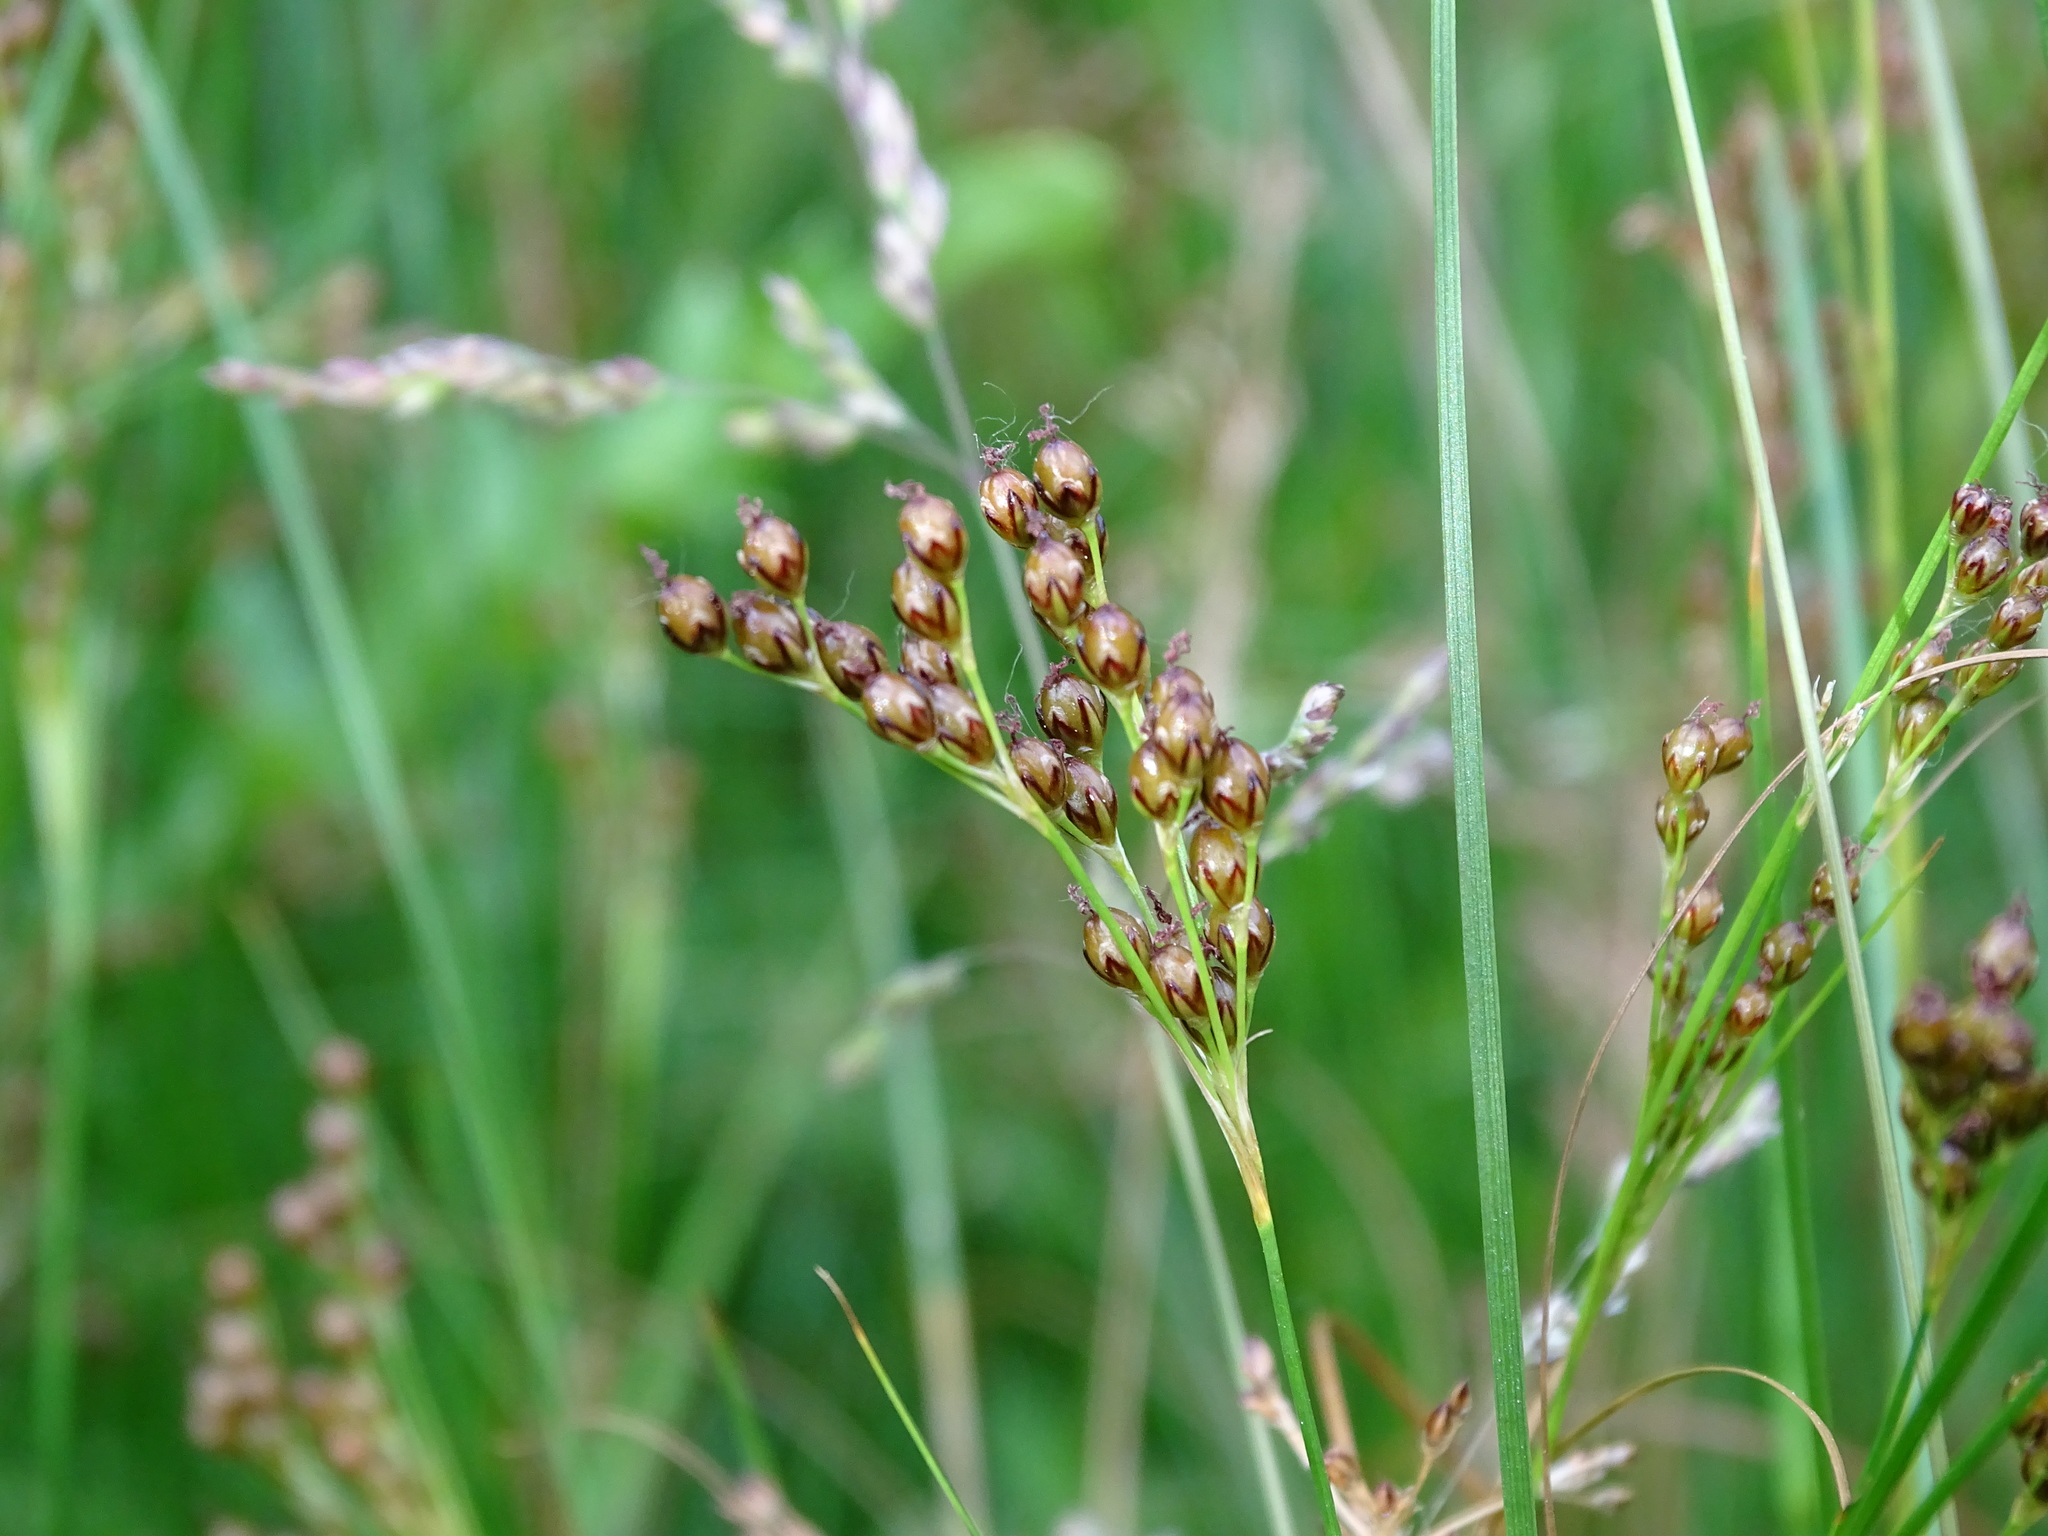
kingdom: Plantae
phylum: Tracheophyta
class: Liliopsida
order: Poales
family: Juncaceae
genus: Juncus
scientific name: Juncus compressus
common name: Round-fruited rush
